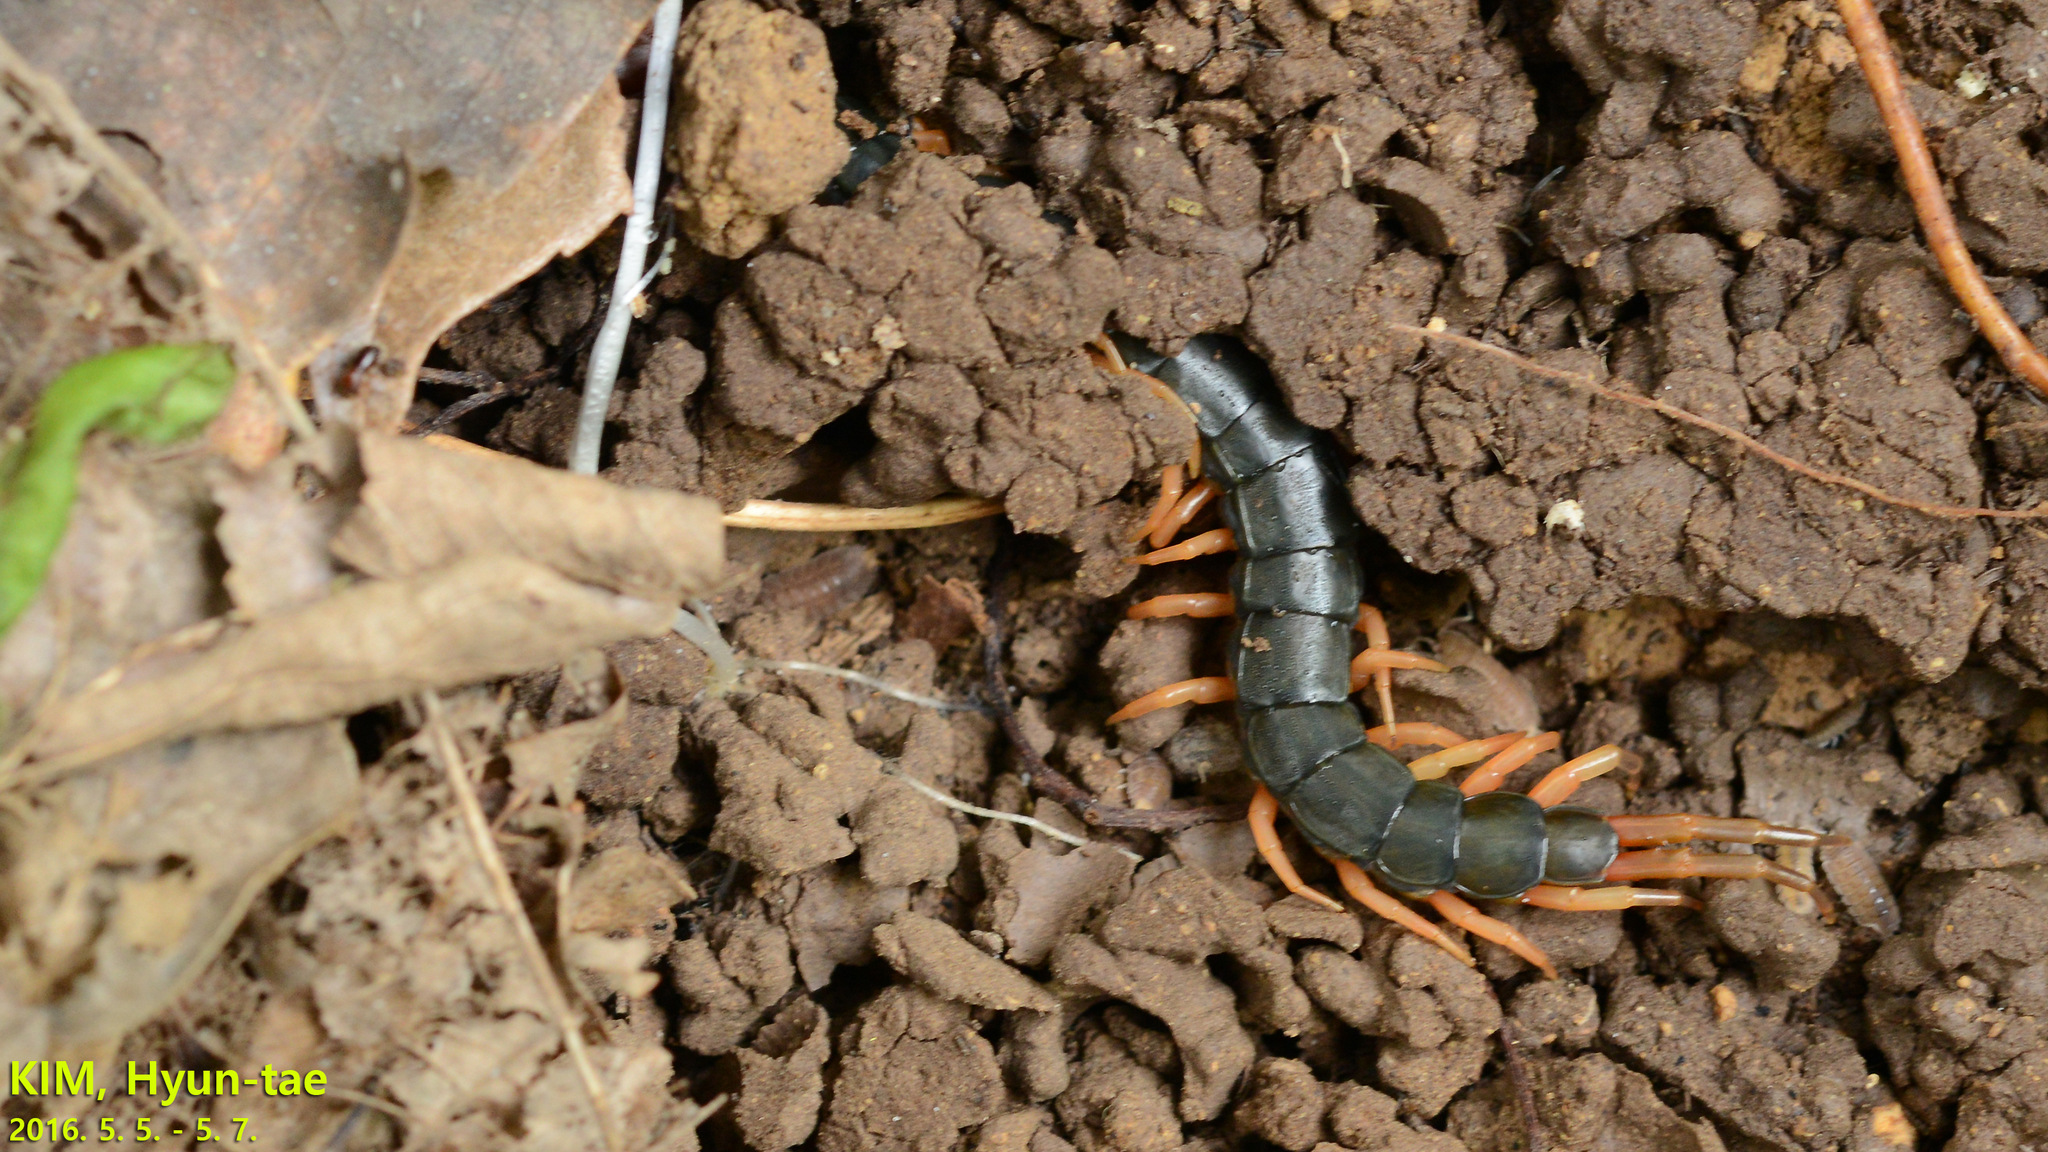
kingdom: Animalia
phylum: Arthropoda
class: Chilopoda
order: Scolopendromorpha
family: Scolopendridae
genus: Scolopendra
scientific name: Scolopendra mutilans
